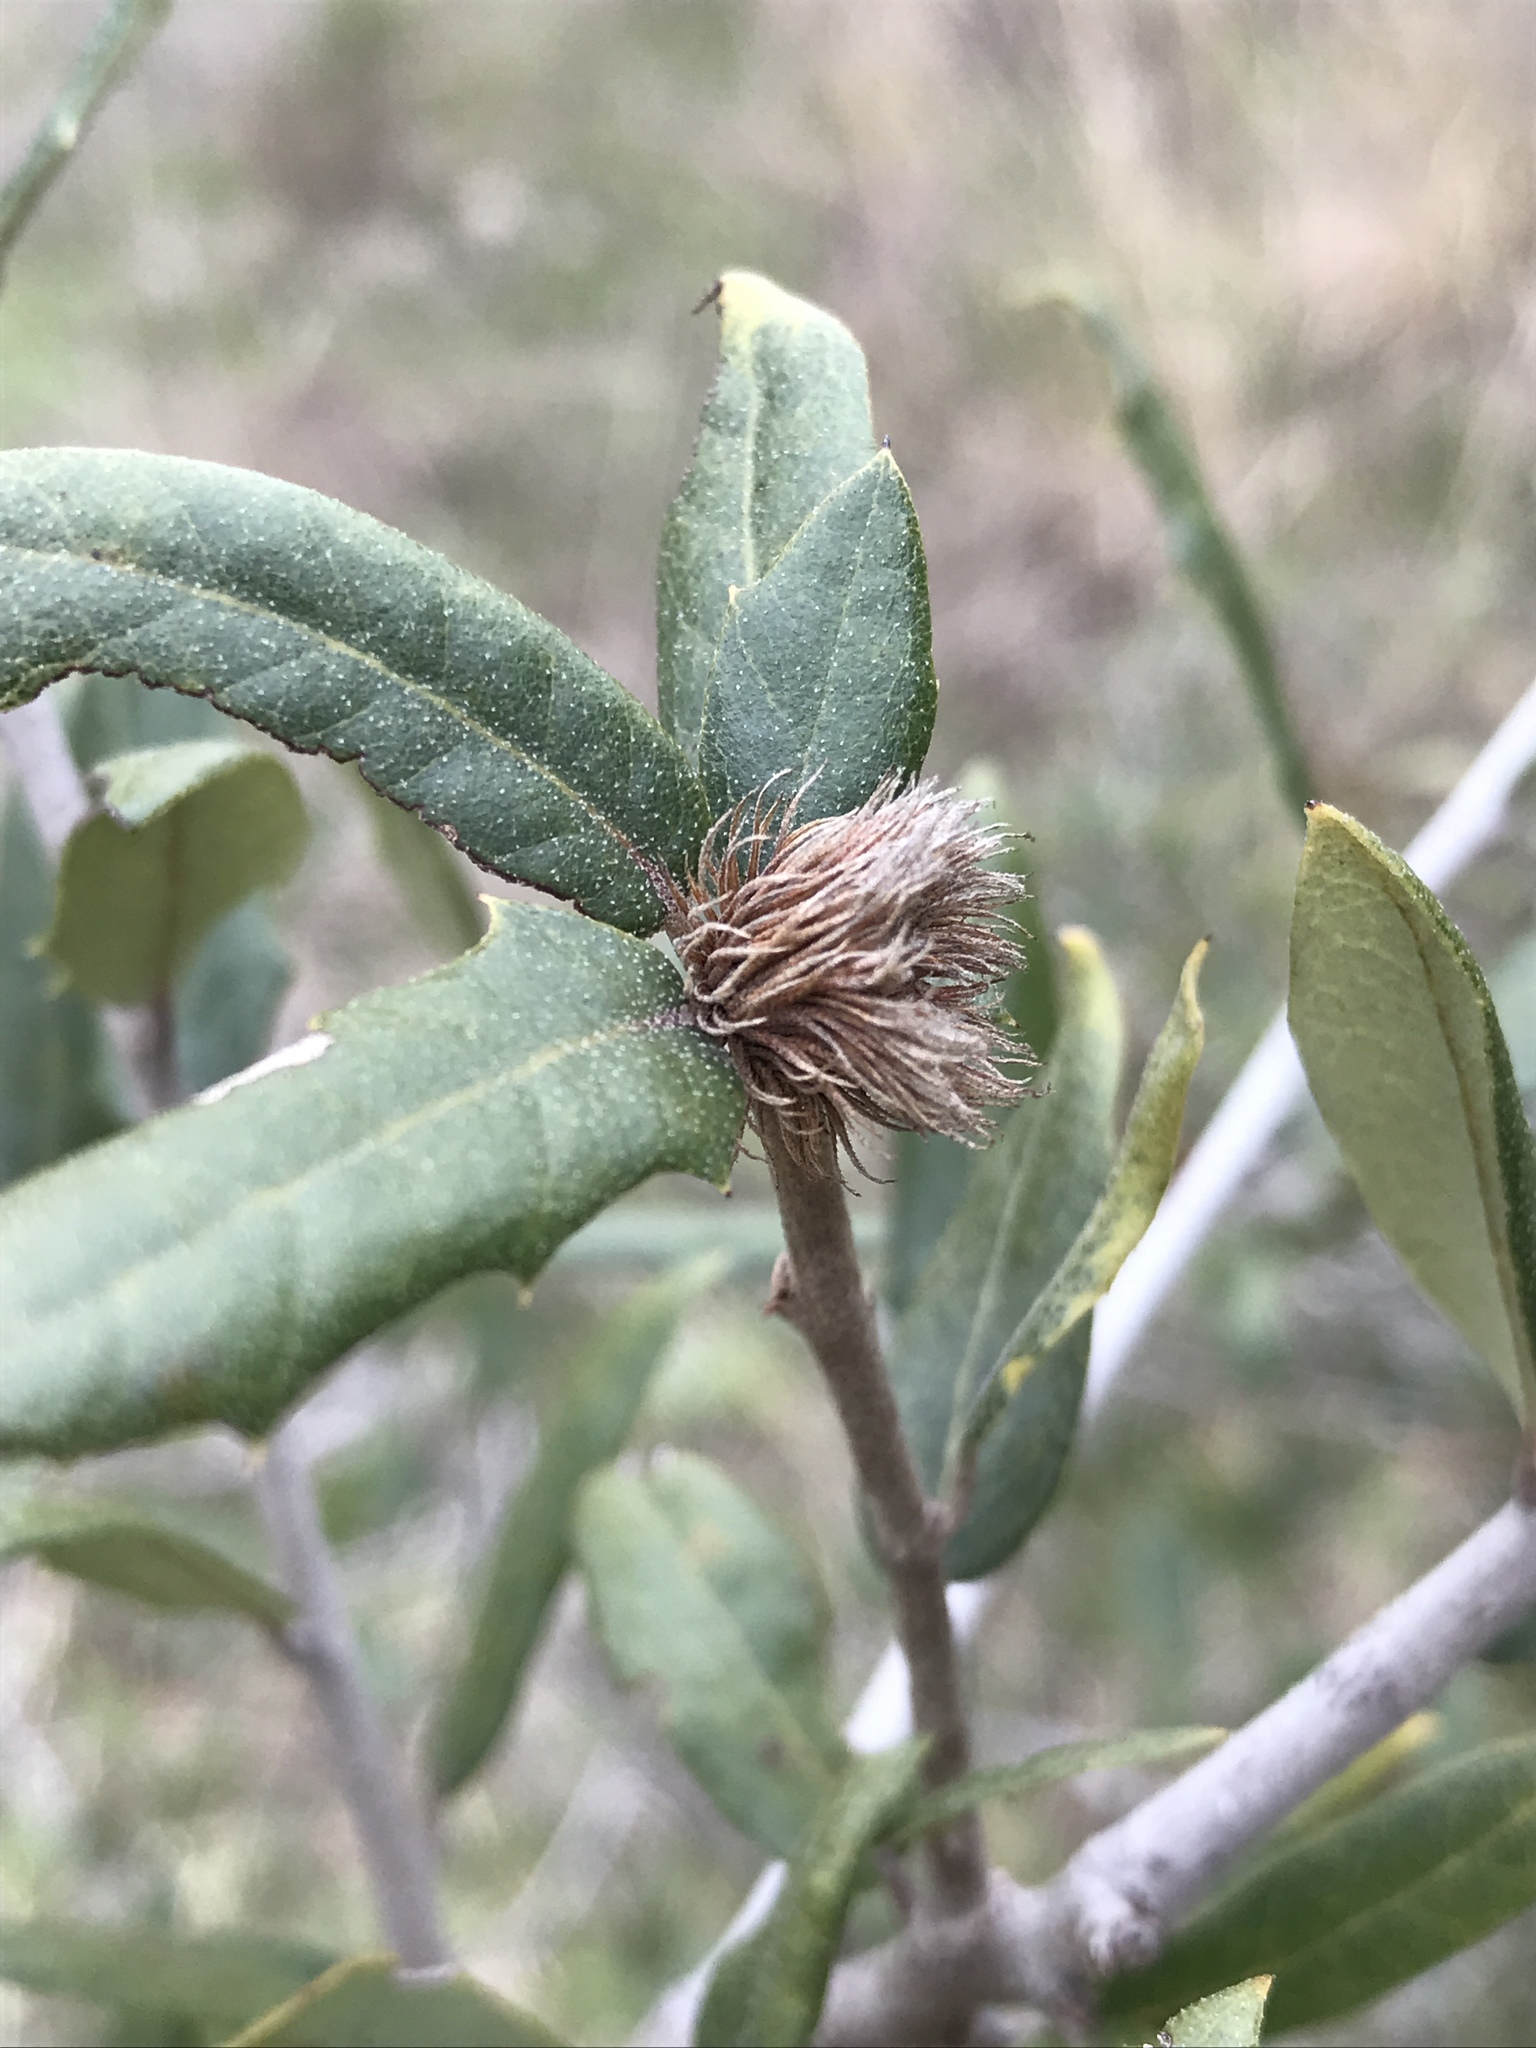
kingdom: Animalia
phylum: Arthropoda
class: Insecta
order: Hymenoptera
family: Cynipidae
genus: Andricus
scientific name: Andricus quercusfoliatus
